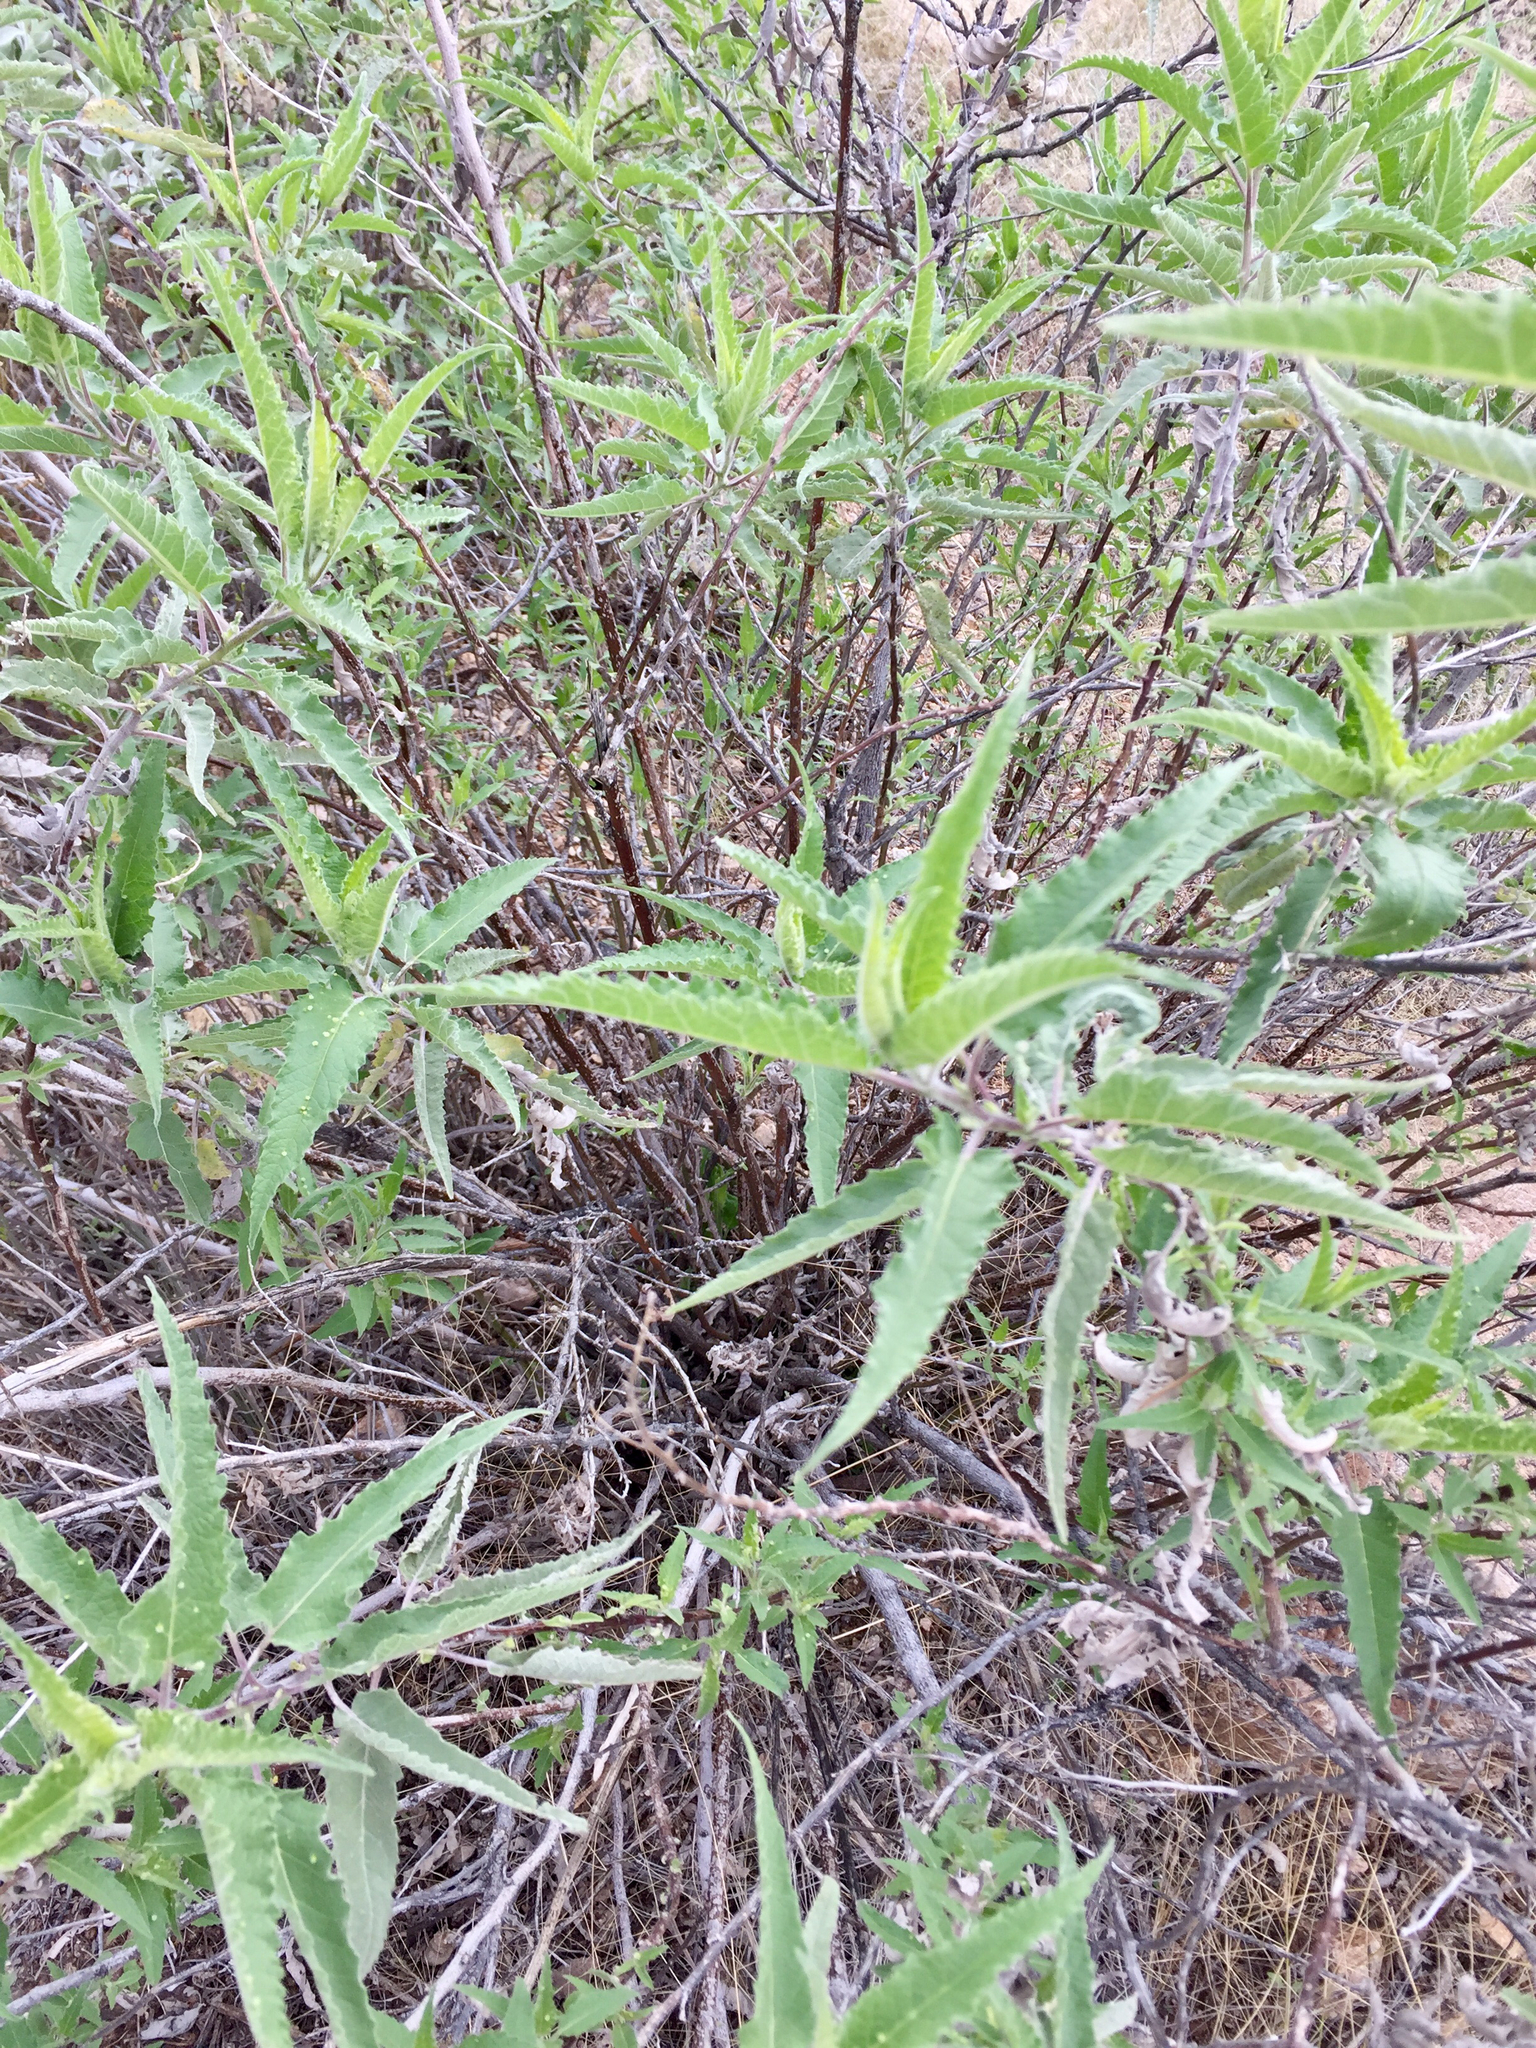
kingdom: Plantae
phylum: Tracheophyta
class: Magnoliopsida
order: Asterales
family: Asteraceae
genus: Ambrosia
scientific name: Ambrosia ambrosioides
